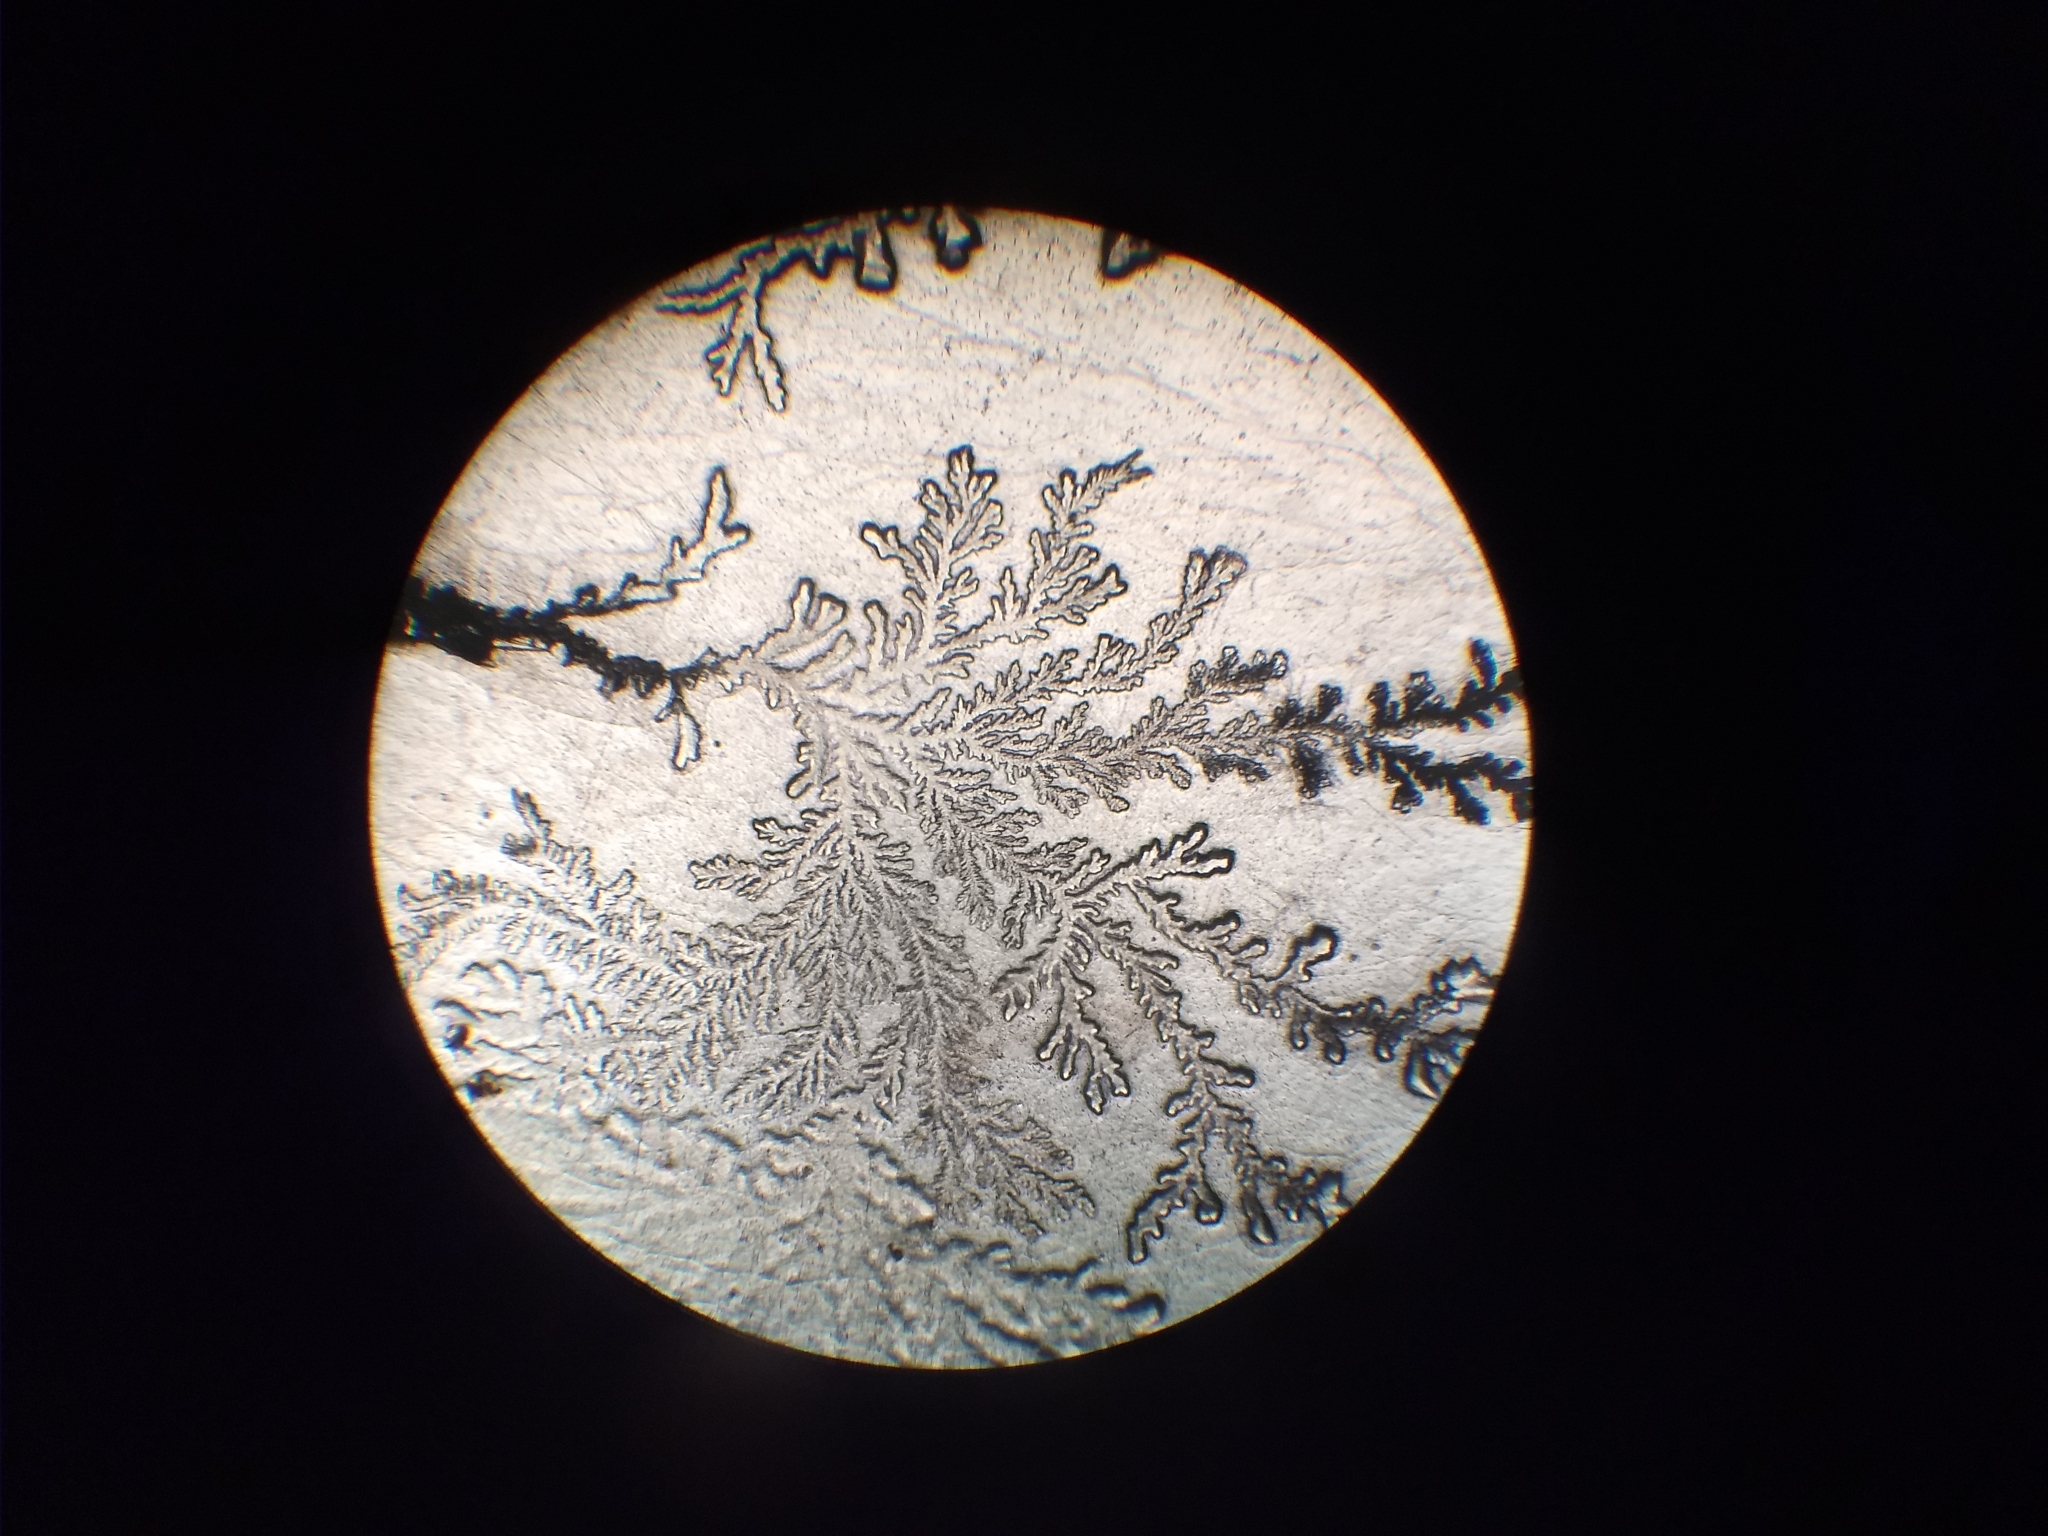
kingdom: Fungi
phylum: Ascomycota
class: Eurotiomycetes
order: Eurotiales
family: Aspergillaceae
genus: Aspergillus
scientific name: Aspergillus
